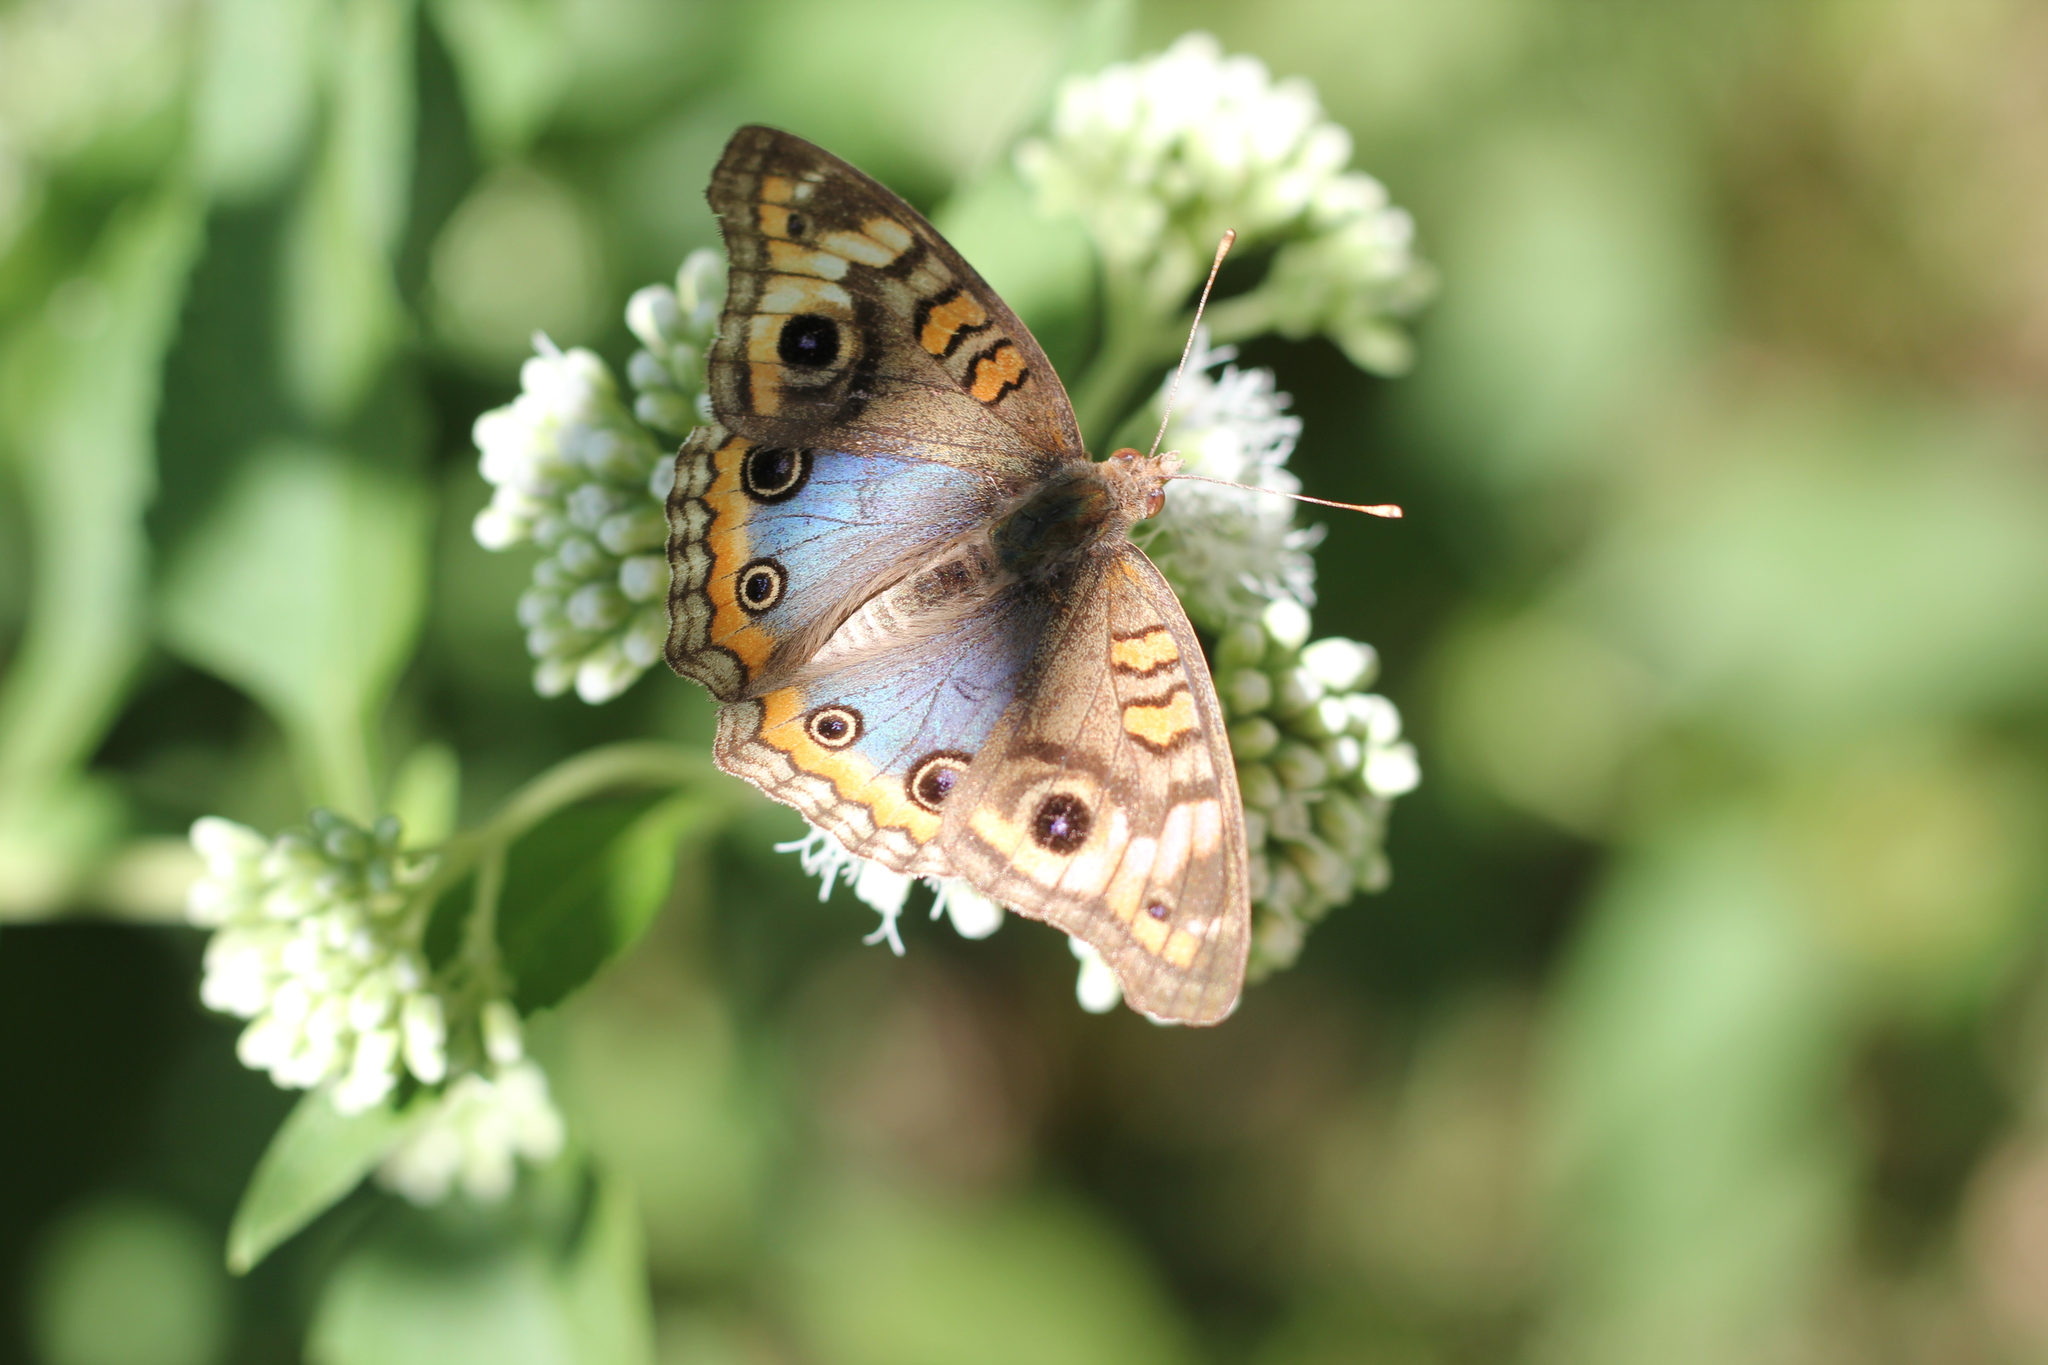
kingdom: Animalia
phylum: Arthropoda
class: Insecta
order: Lepidoptera
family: Nymphalidae
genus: Junonia
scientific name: Junonia lavinia
